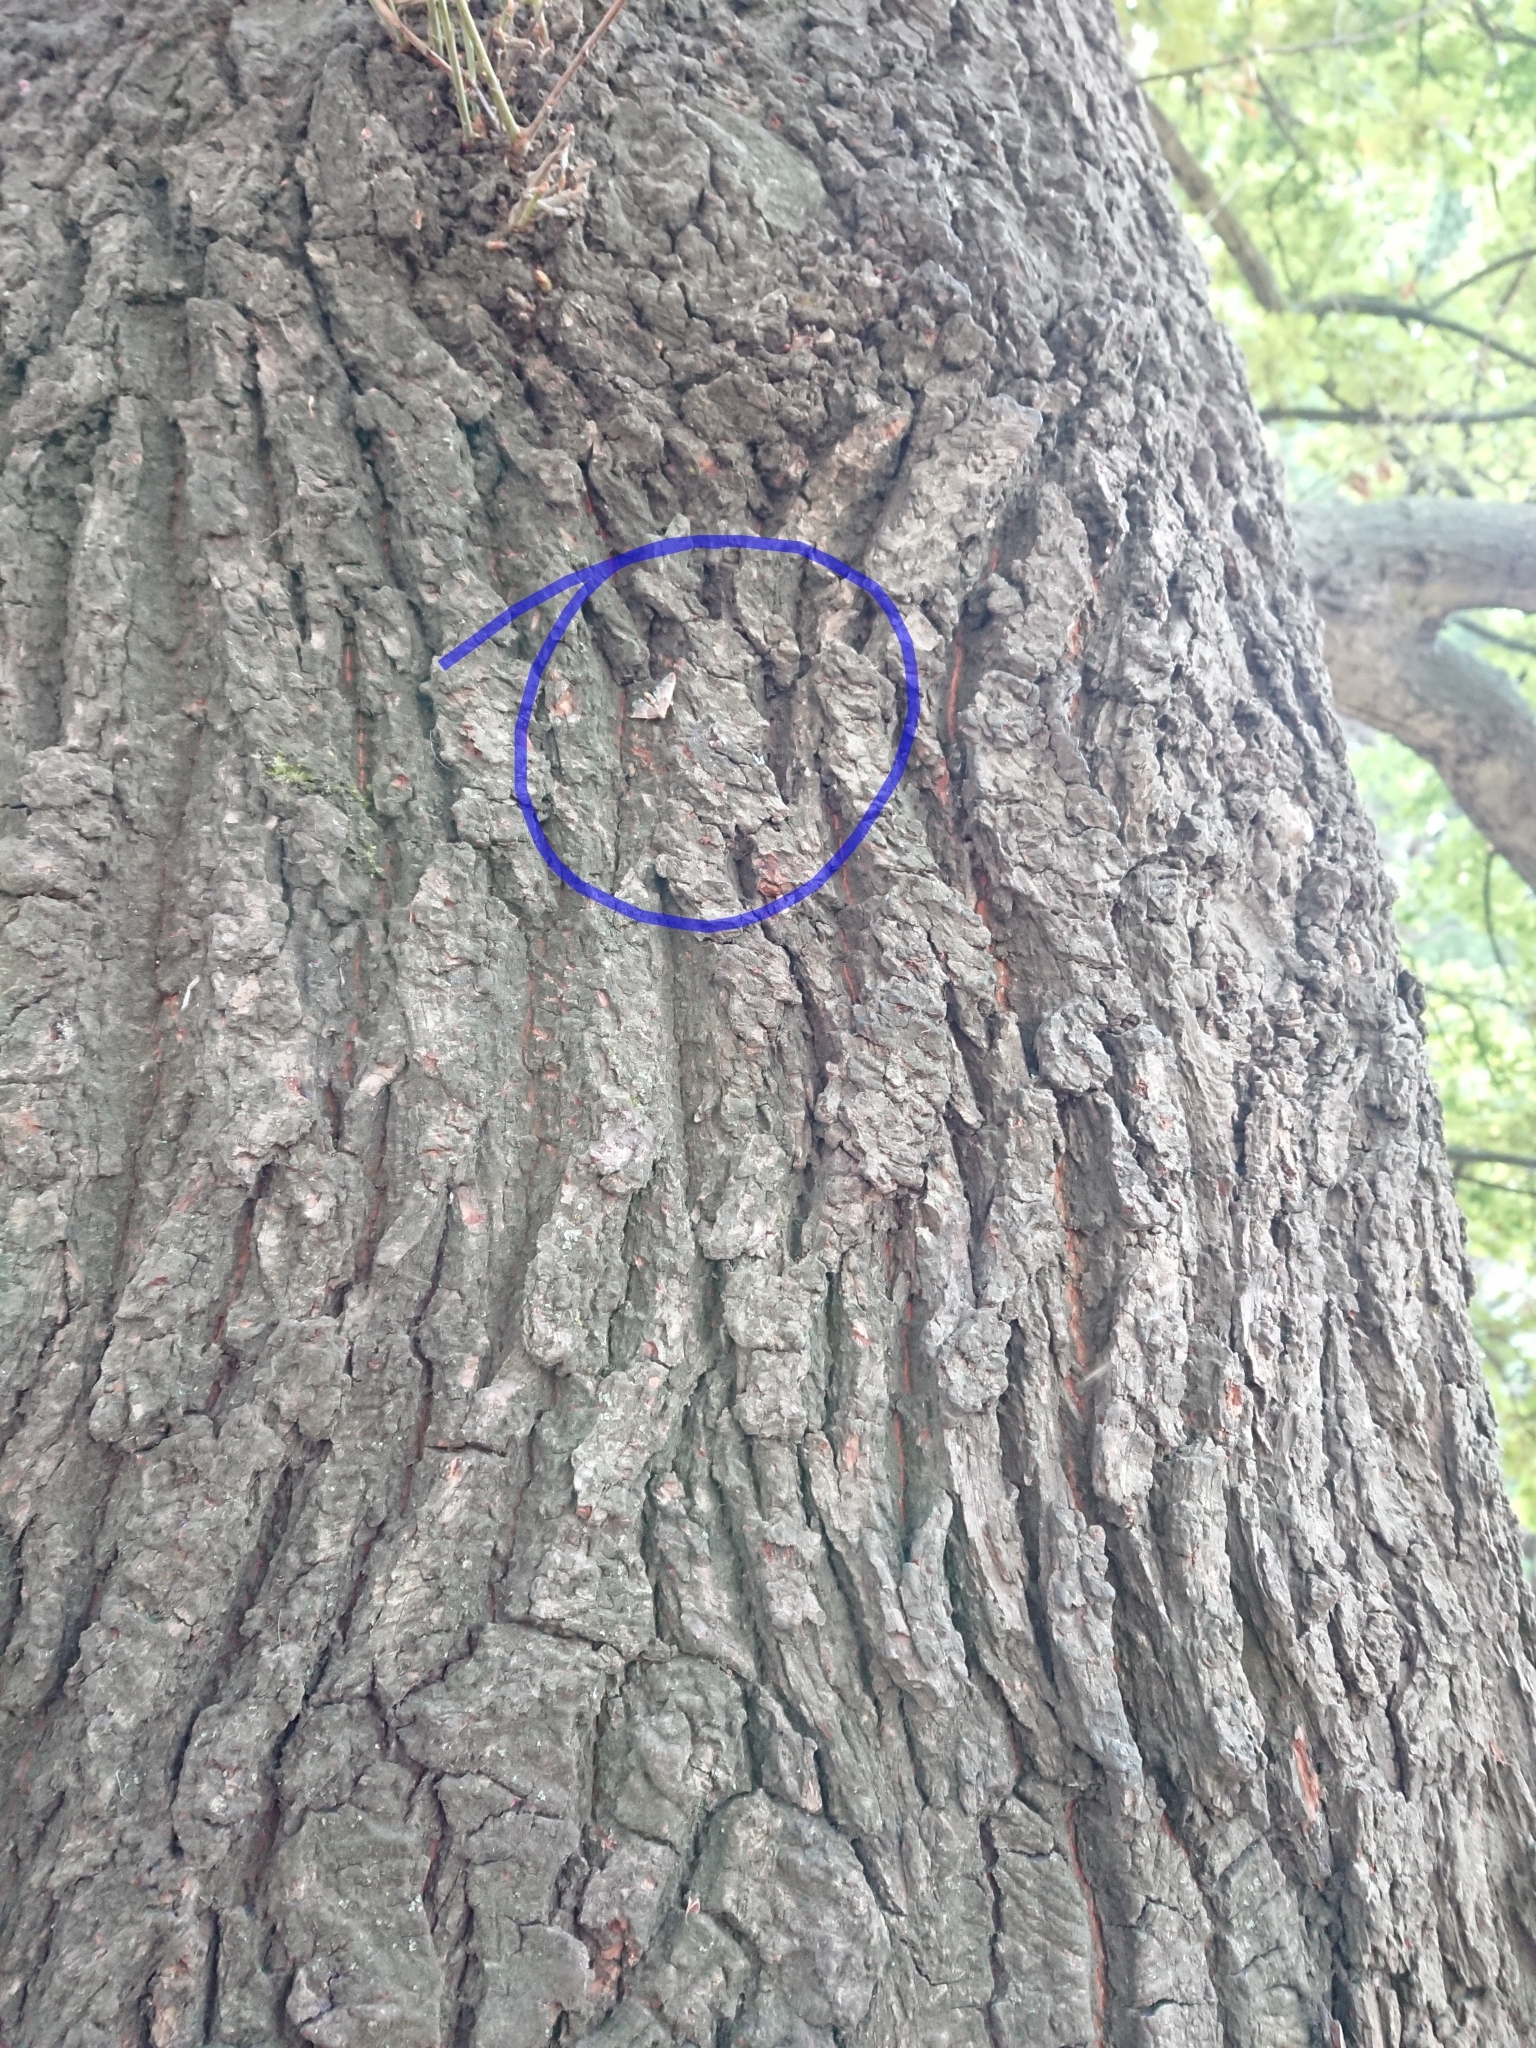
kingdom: Animalia
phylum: Arthropoda
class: Insecta
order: Lepidoptera
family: Pyralidae
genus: Pyralis
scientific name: Pyralis farinalis
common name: Meal moth
